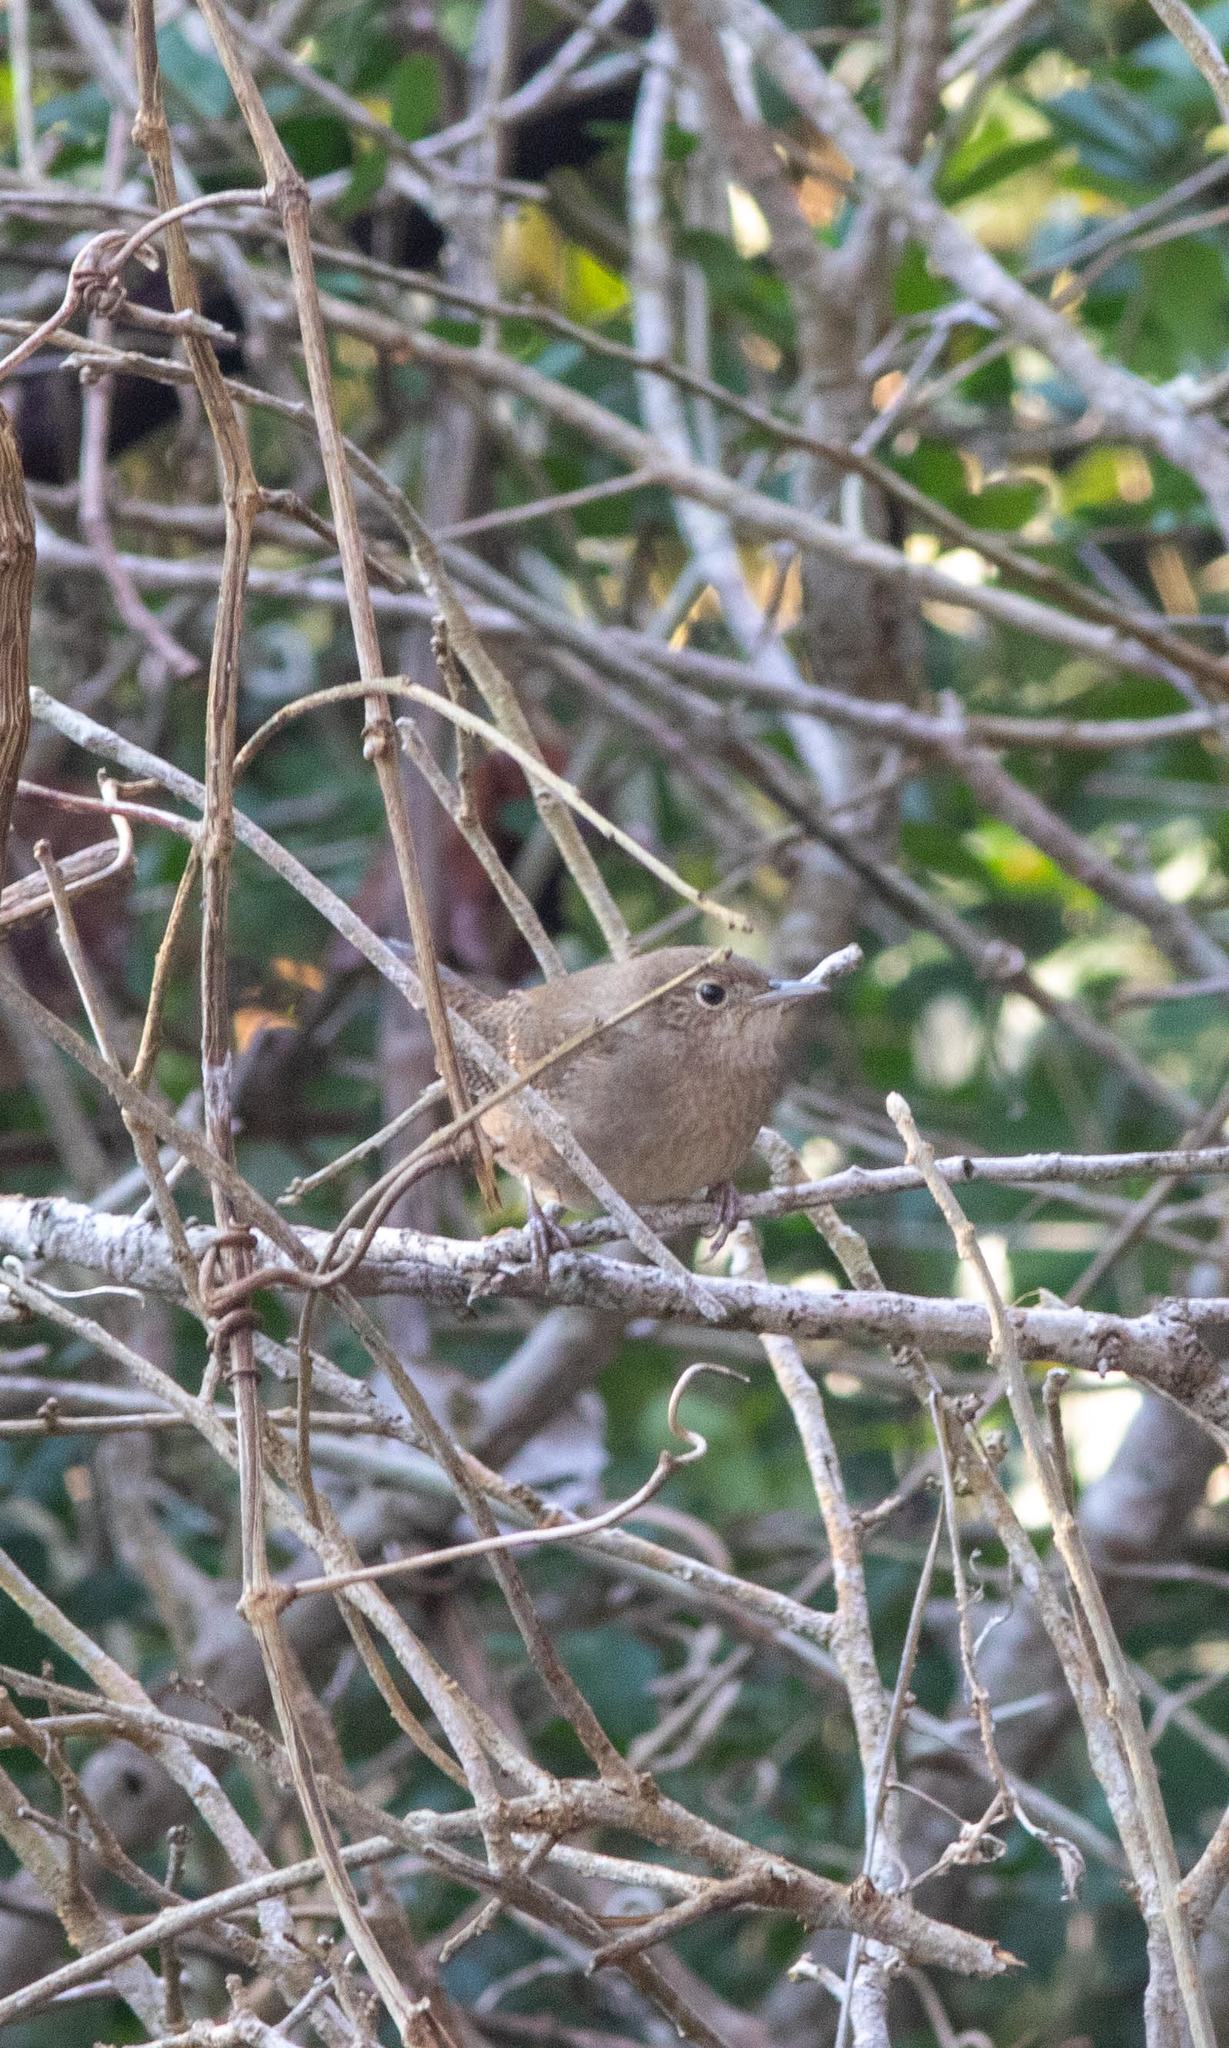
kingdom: Animalia
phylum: Chordata
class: Aves
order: Passeriformes
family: Troglodytidae
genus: Troglodytes
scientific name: Troglodytes aedon
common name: House wren
